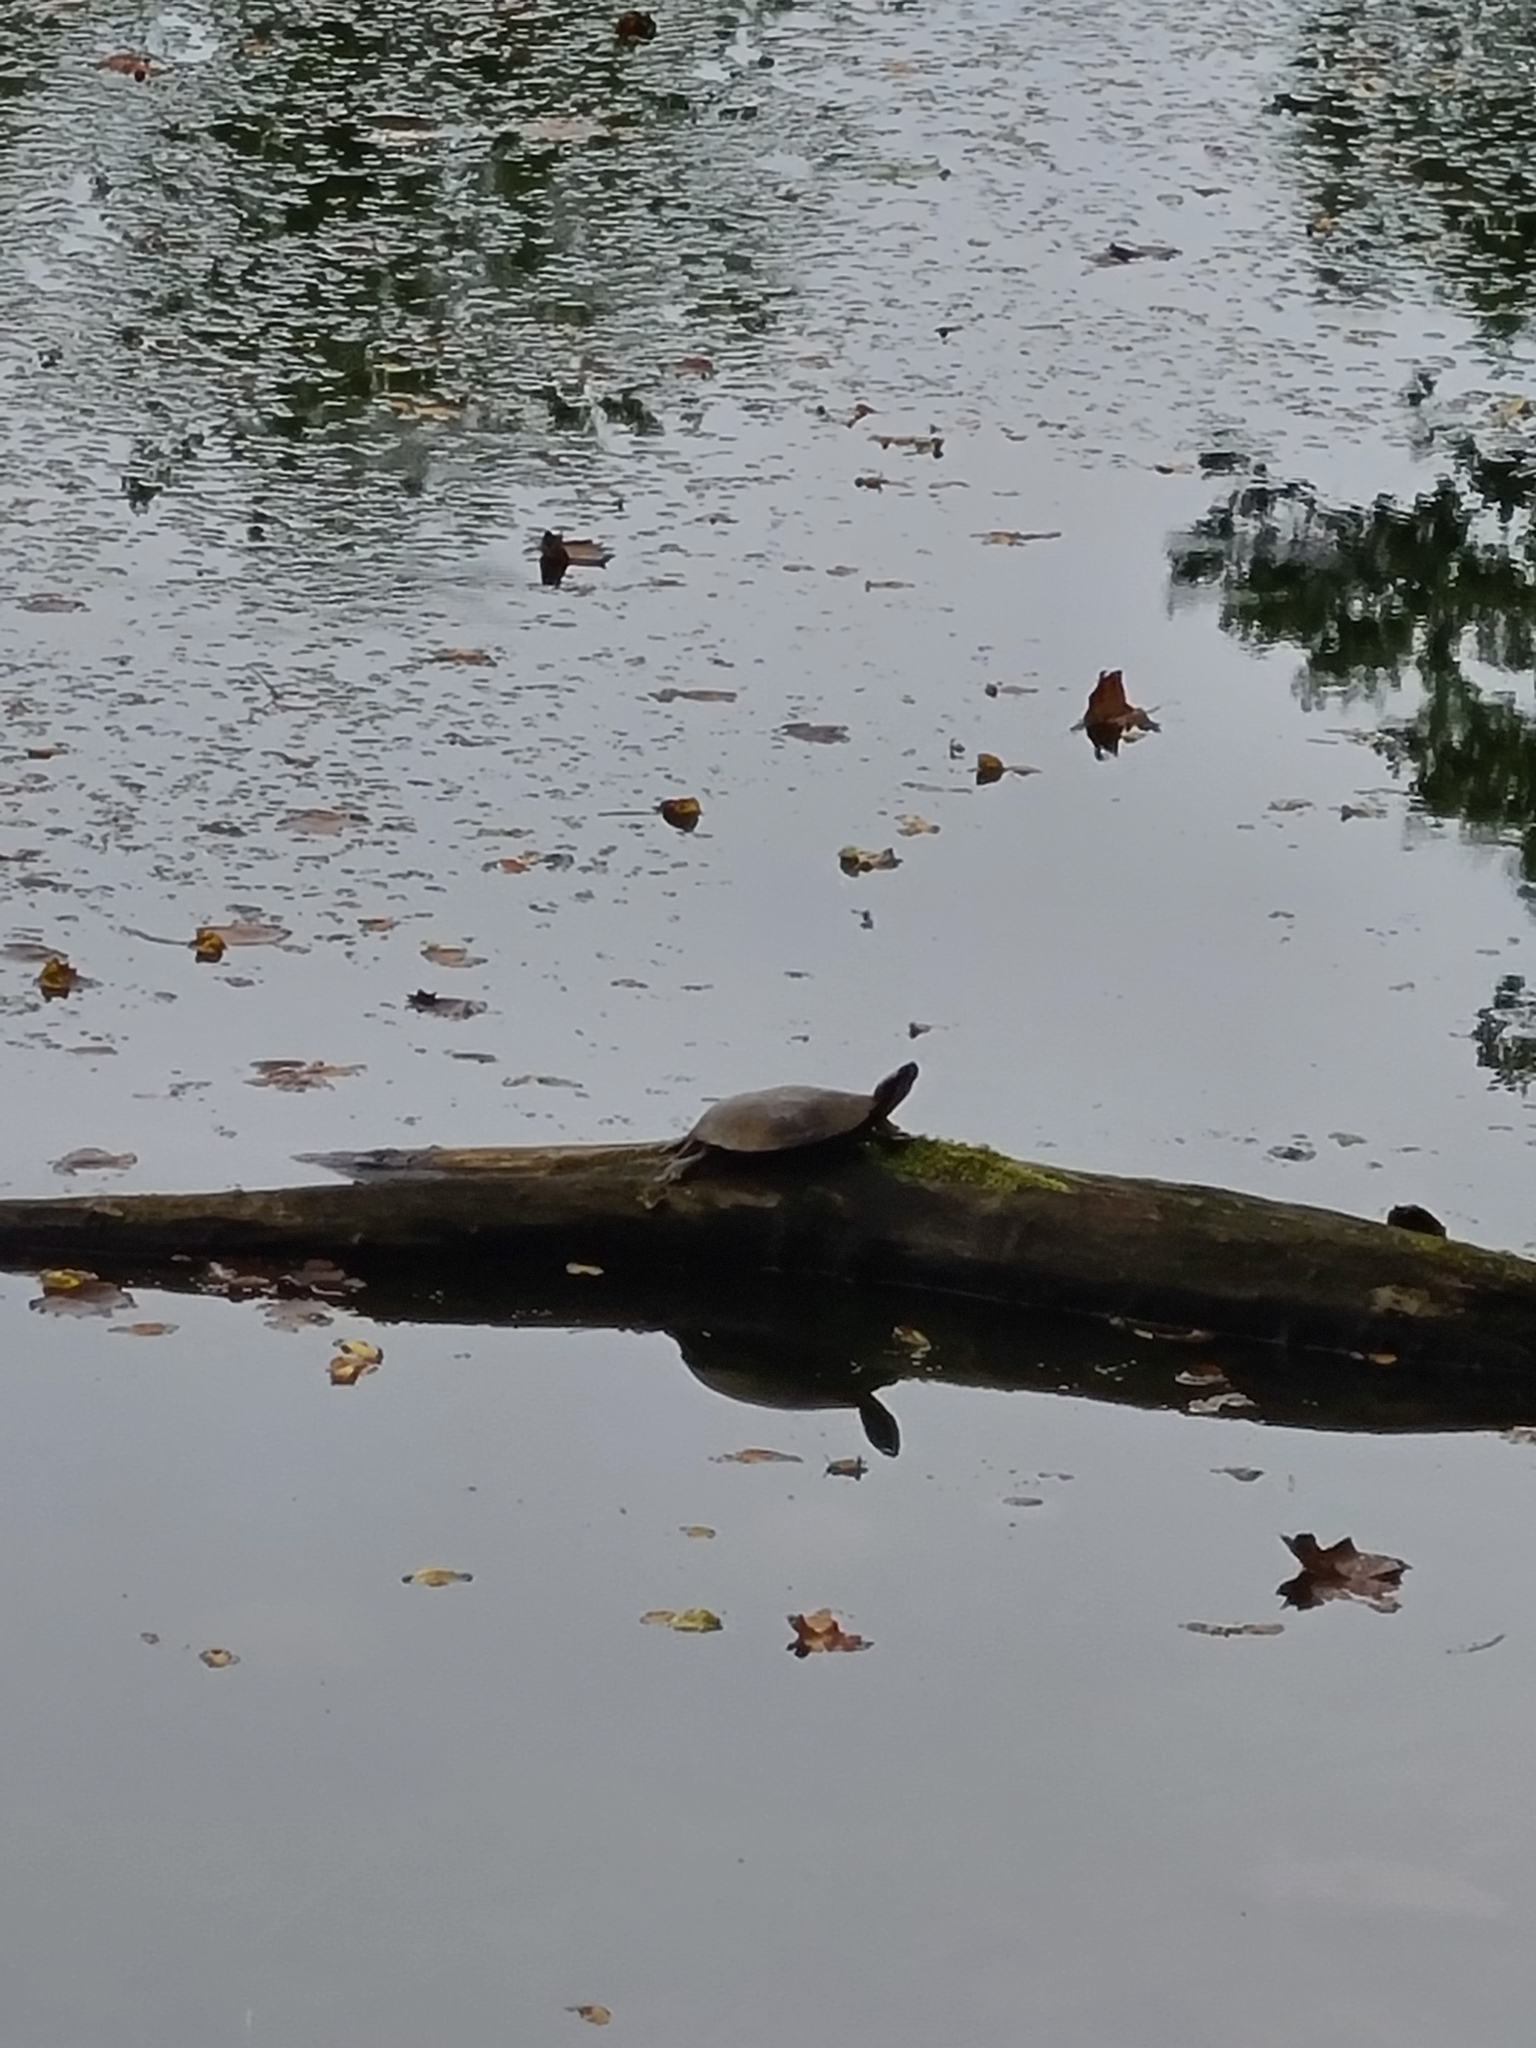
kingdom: Animalia
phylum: Chordata
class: Testudines
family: Emydidae
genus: Chrysemys
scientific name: Chrysemys picta
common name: Painted turtle
